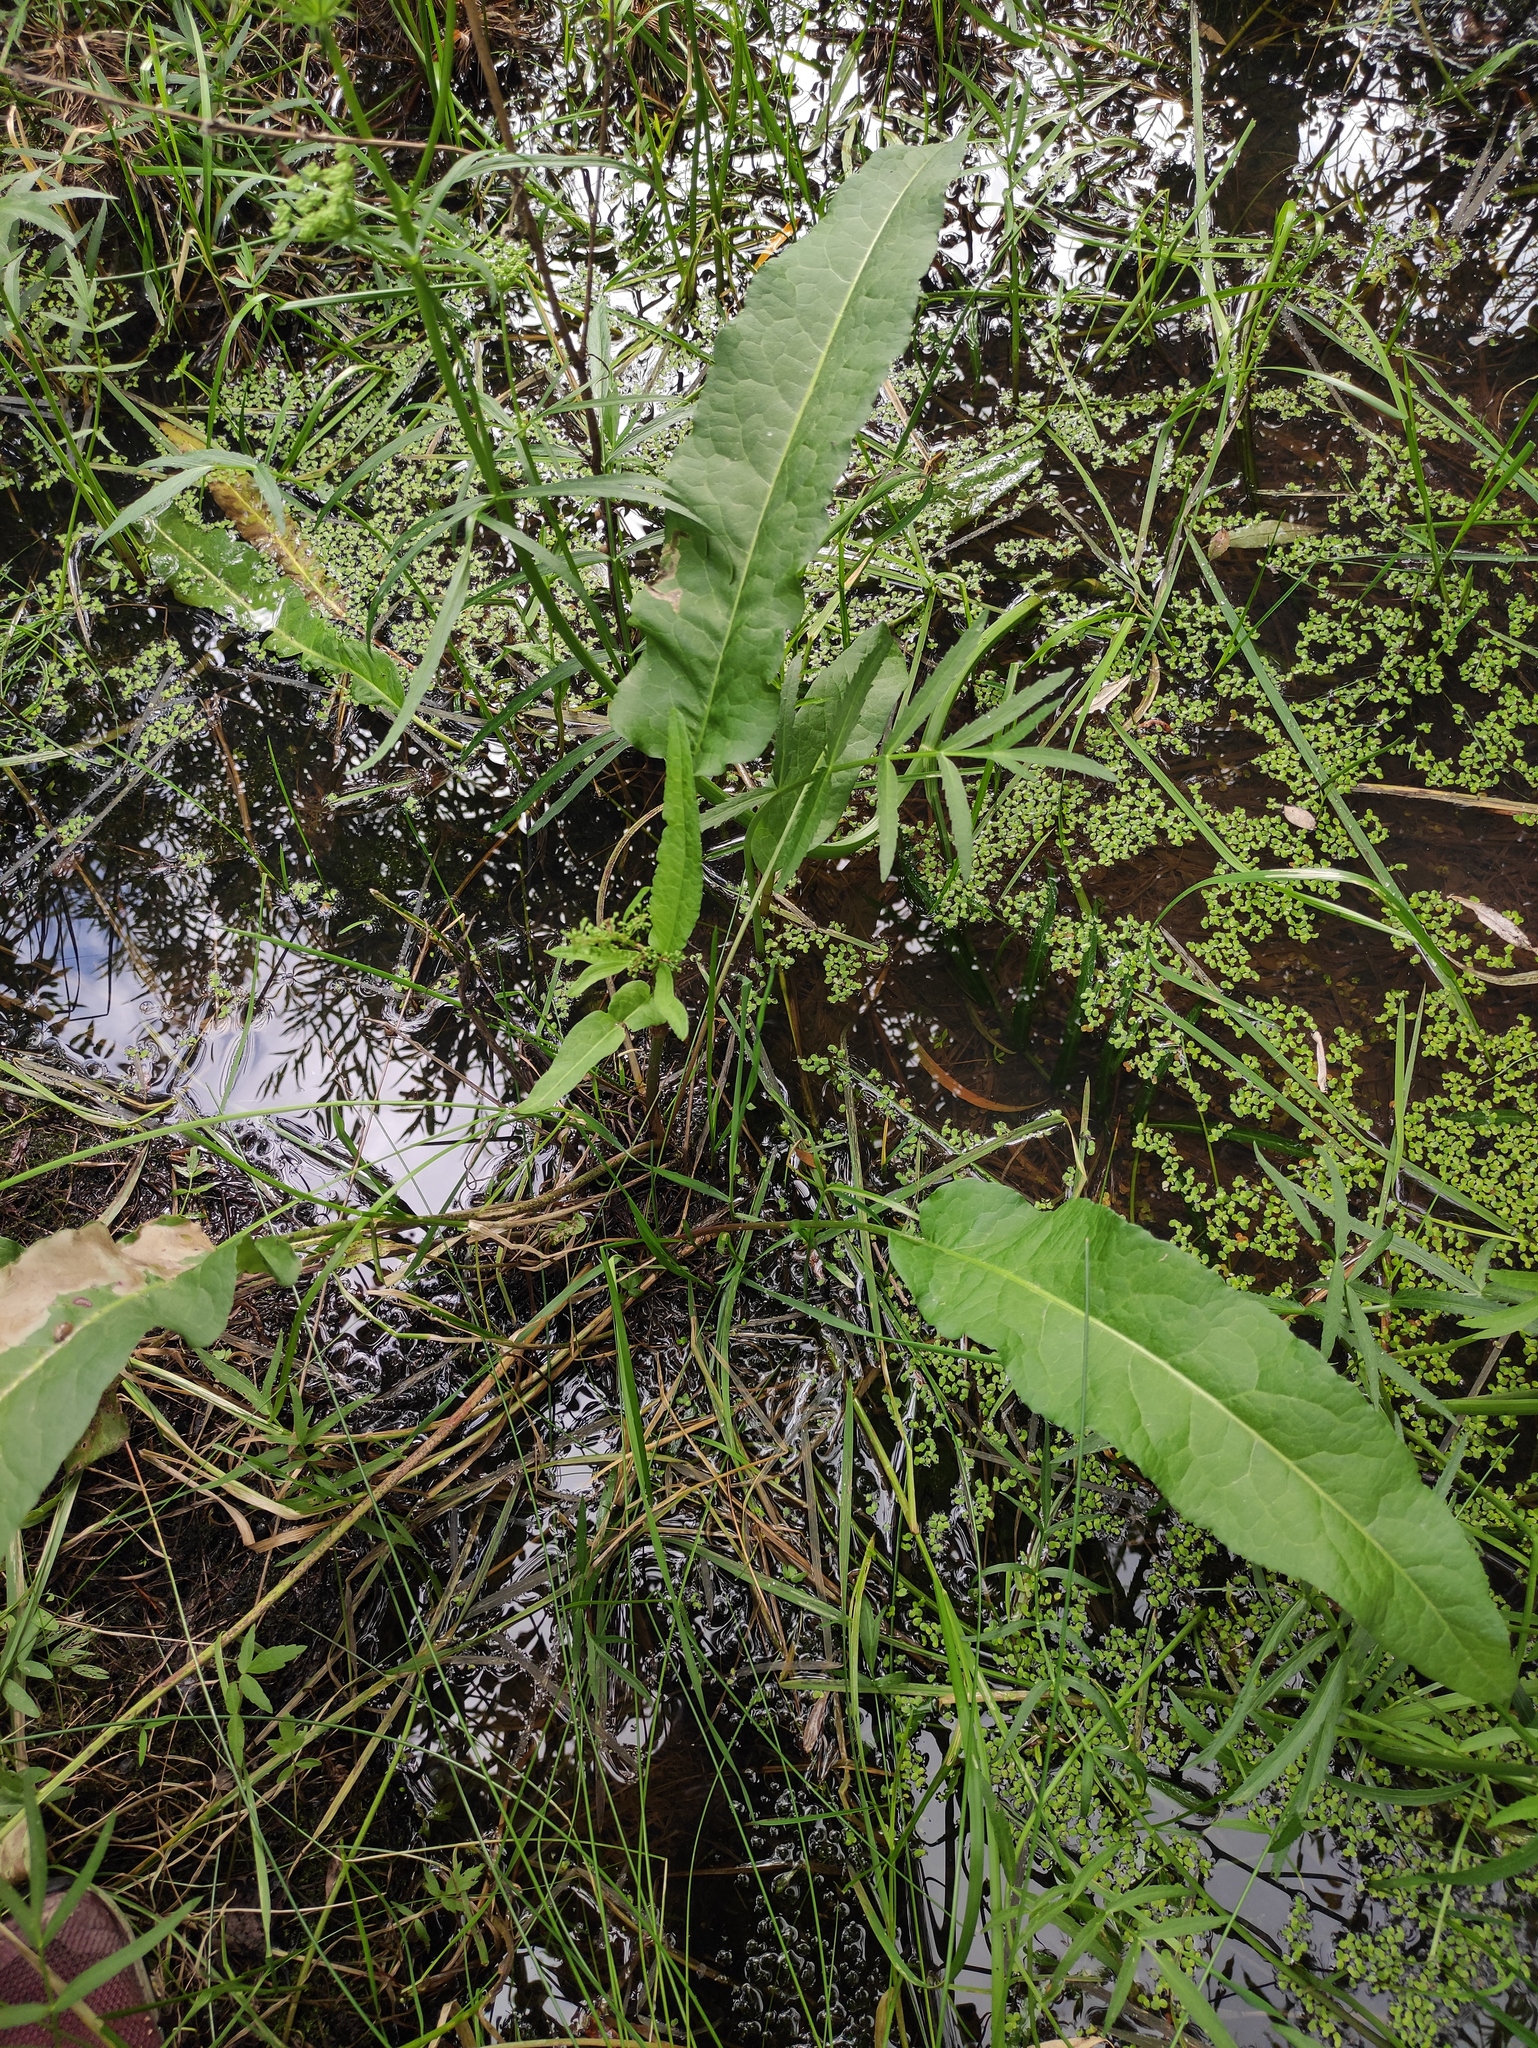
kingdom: Plantae
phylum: Tracheophyta
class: Magnoliopsida
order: Caryophyllales
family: Polygonaceae
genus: Rumex
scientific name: Rumex aquaticus
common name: Scottish dock
